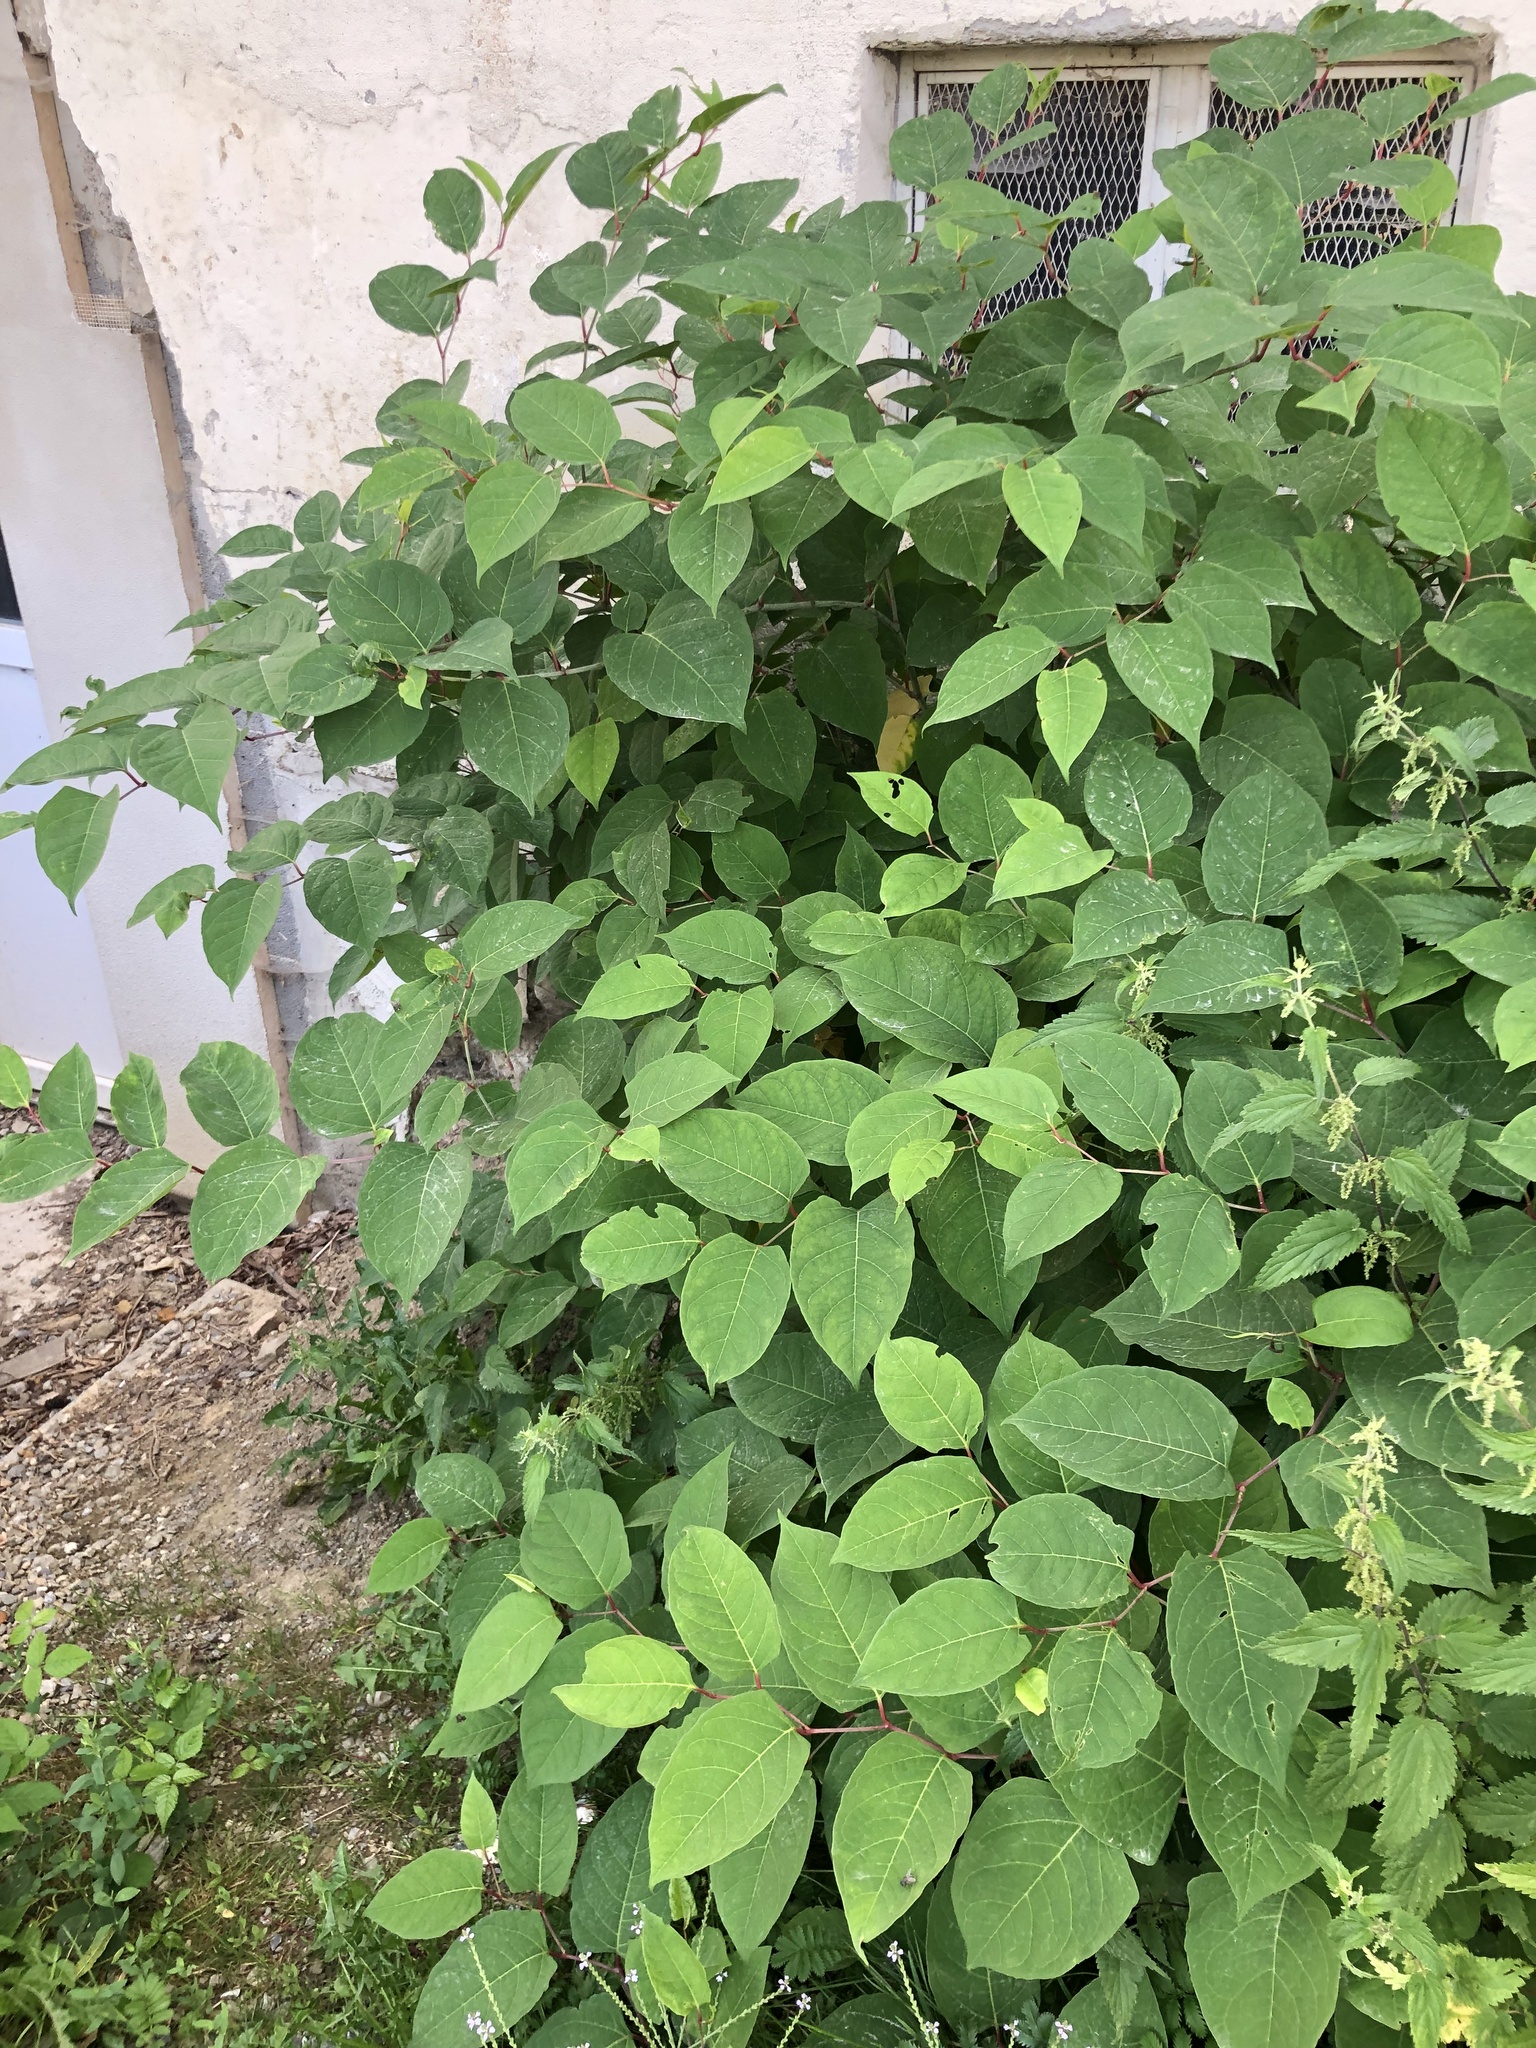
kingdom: Plantae
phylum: Tracheophyta
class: Magnoliopsida
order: Caryophyllales
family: Polygonaceae
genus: Reynoutria
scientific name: Reynoutria japonica
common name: Japanese knotweed
